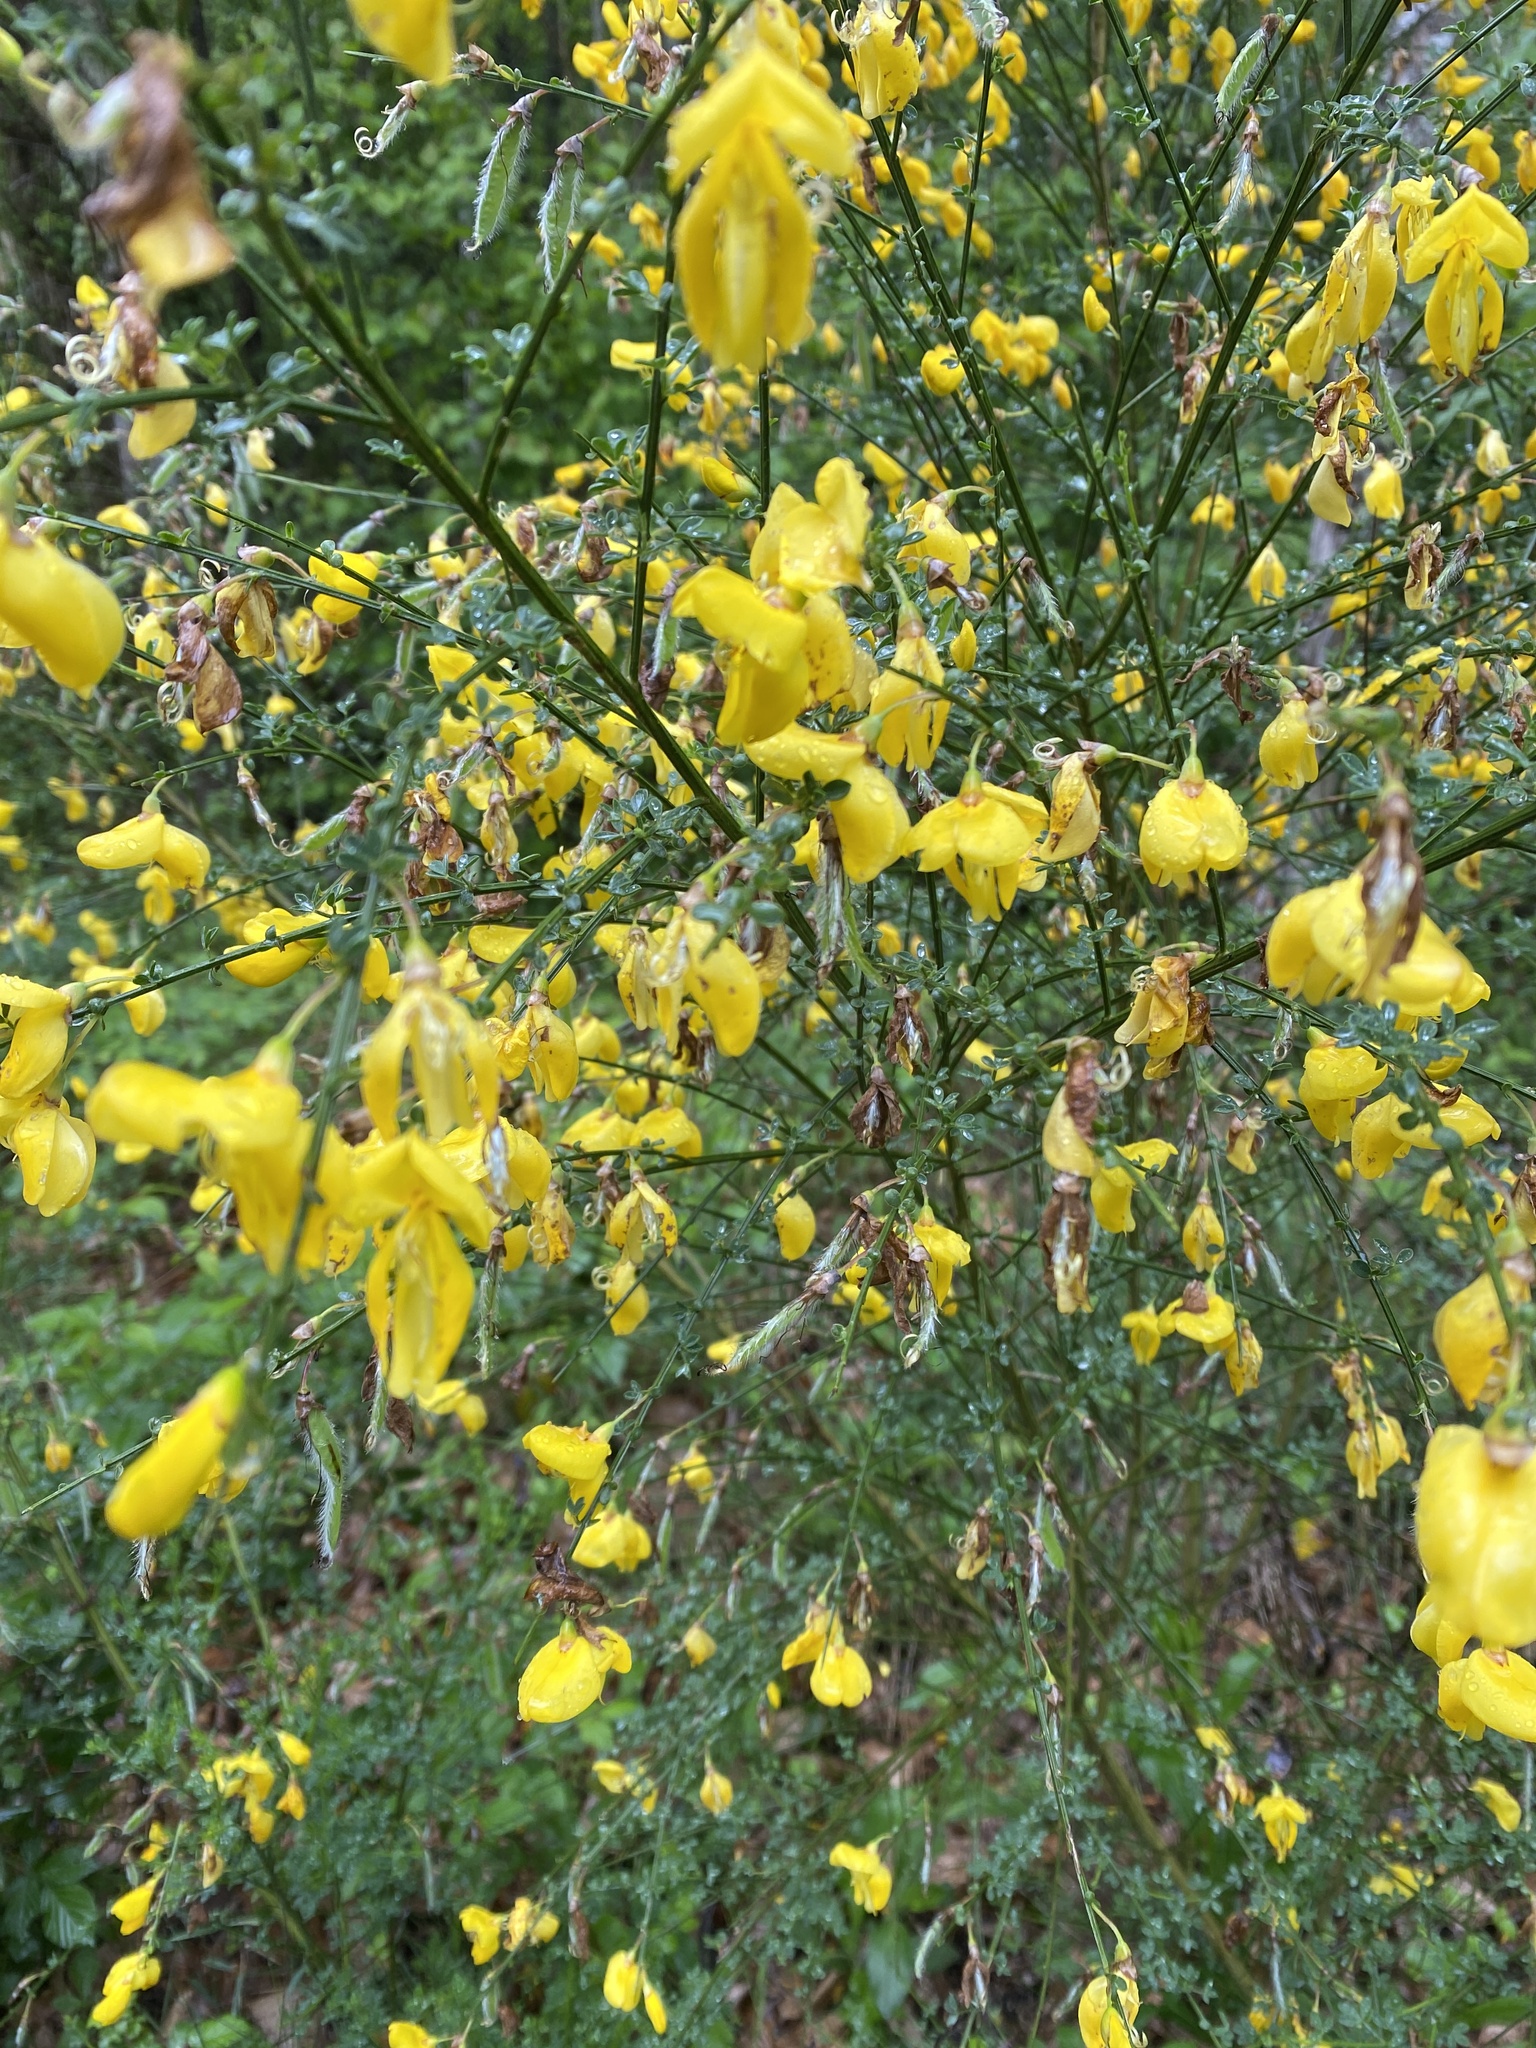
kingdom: Plantae
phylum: Tracheophyta
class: Magnoliopsida
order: Fabales
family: Fabaceae
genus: Cytisus
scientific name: Cytisus scoparius
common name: Scotch broom
